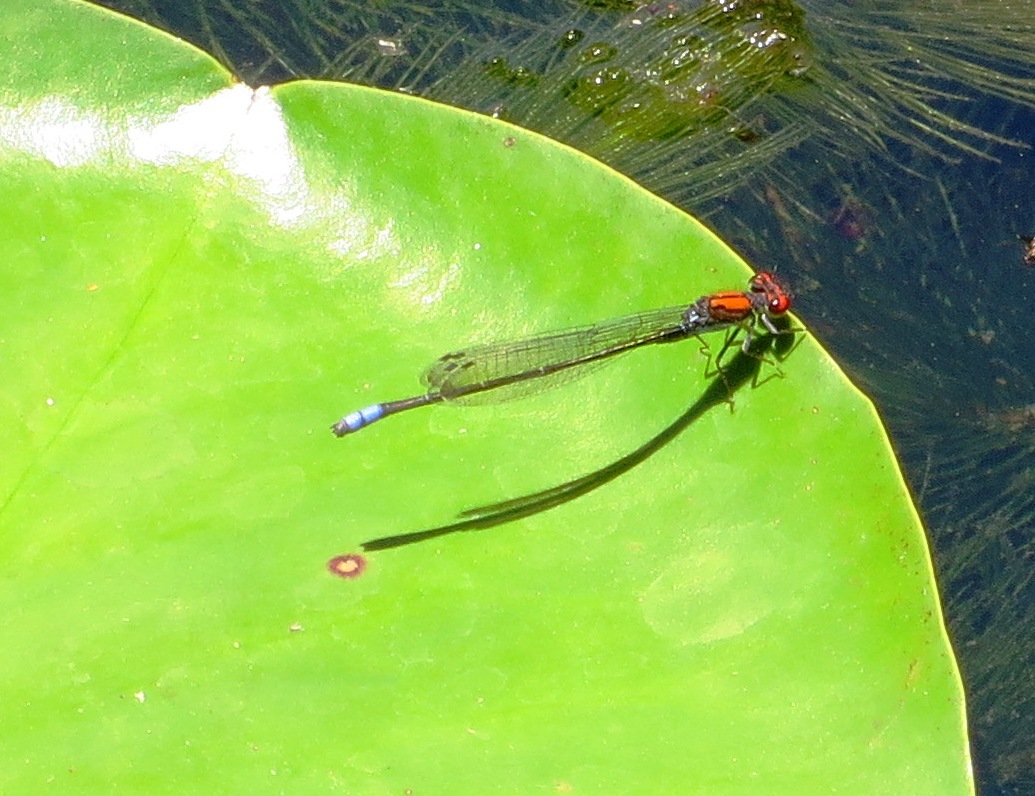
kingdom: Animalia
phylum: Arthropoda
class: Insecta
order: Odonata
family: Coenagrionidae
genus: Pseudagrion
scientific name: Pseudagrion massaicum
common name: Masai sprite
